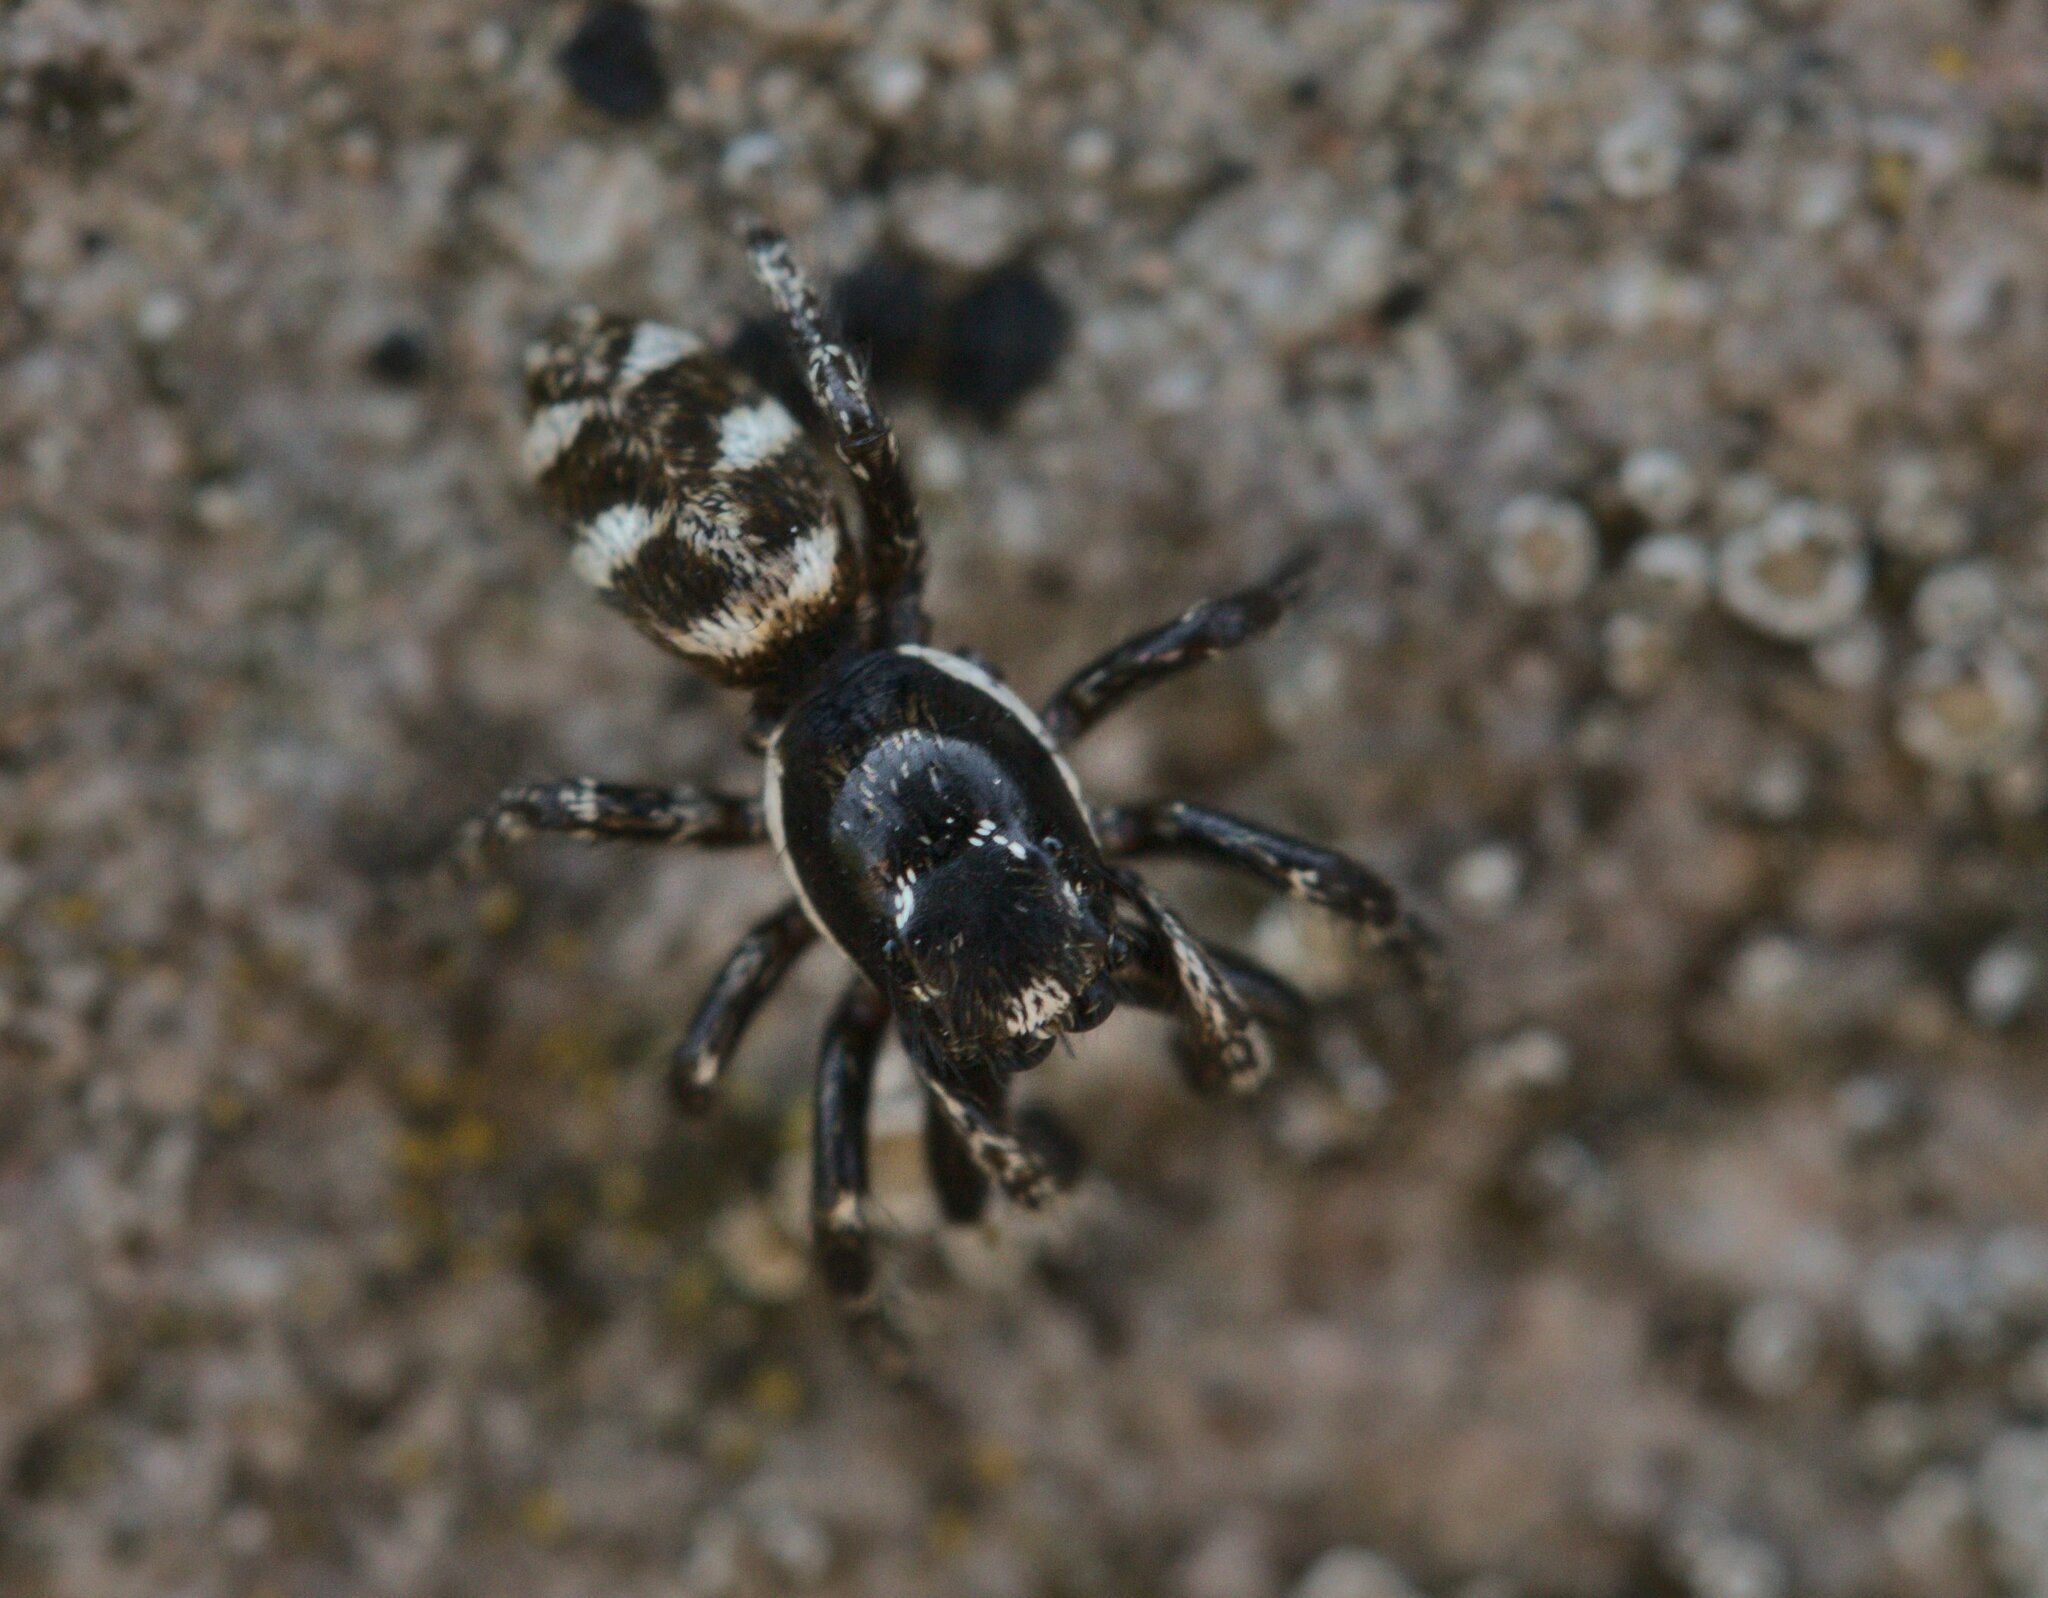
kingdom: Animalia
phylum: Arthropoda
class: Arachnida
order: Araneae
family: Salticidae
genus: Salticus
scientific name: Salticus scenicus
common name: Zebra jumper
